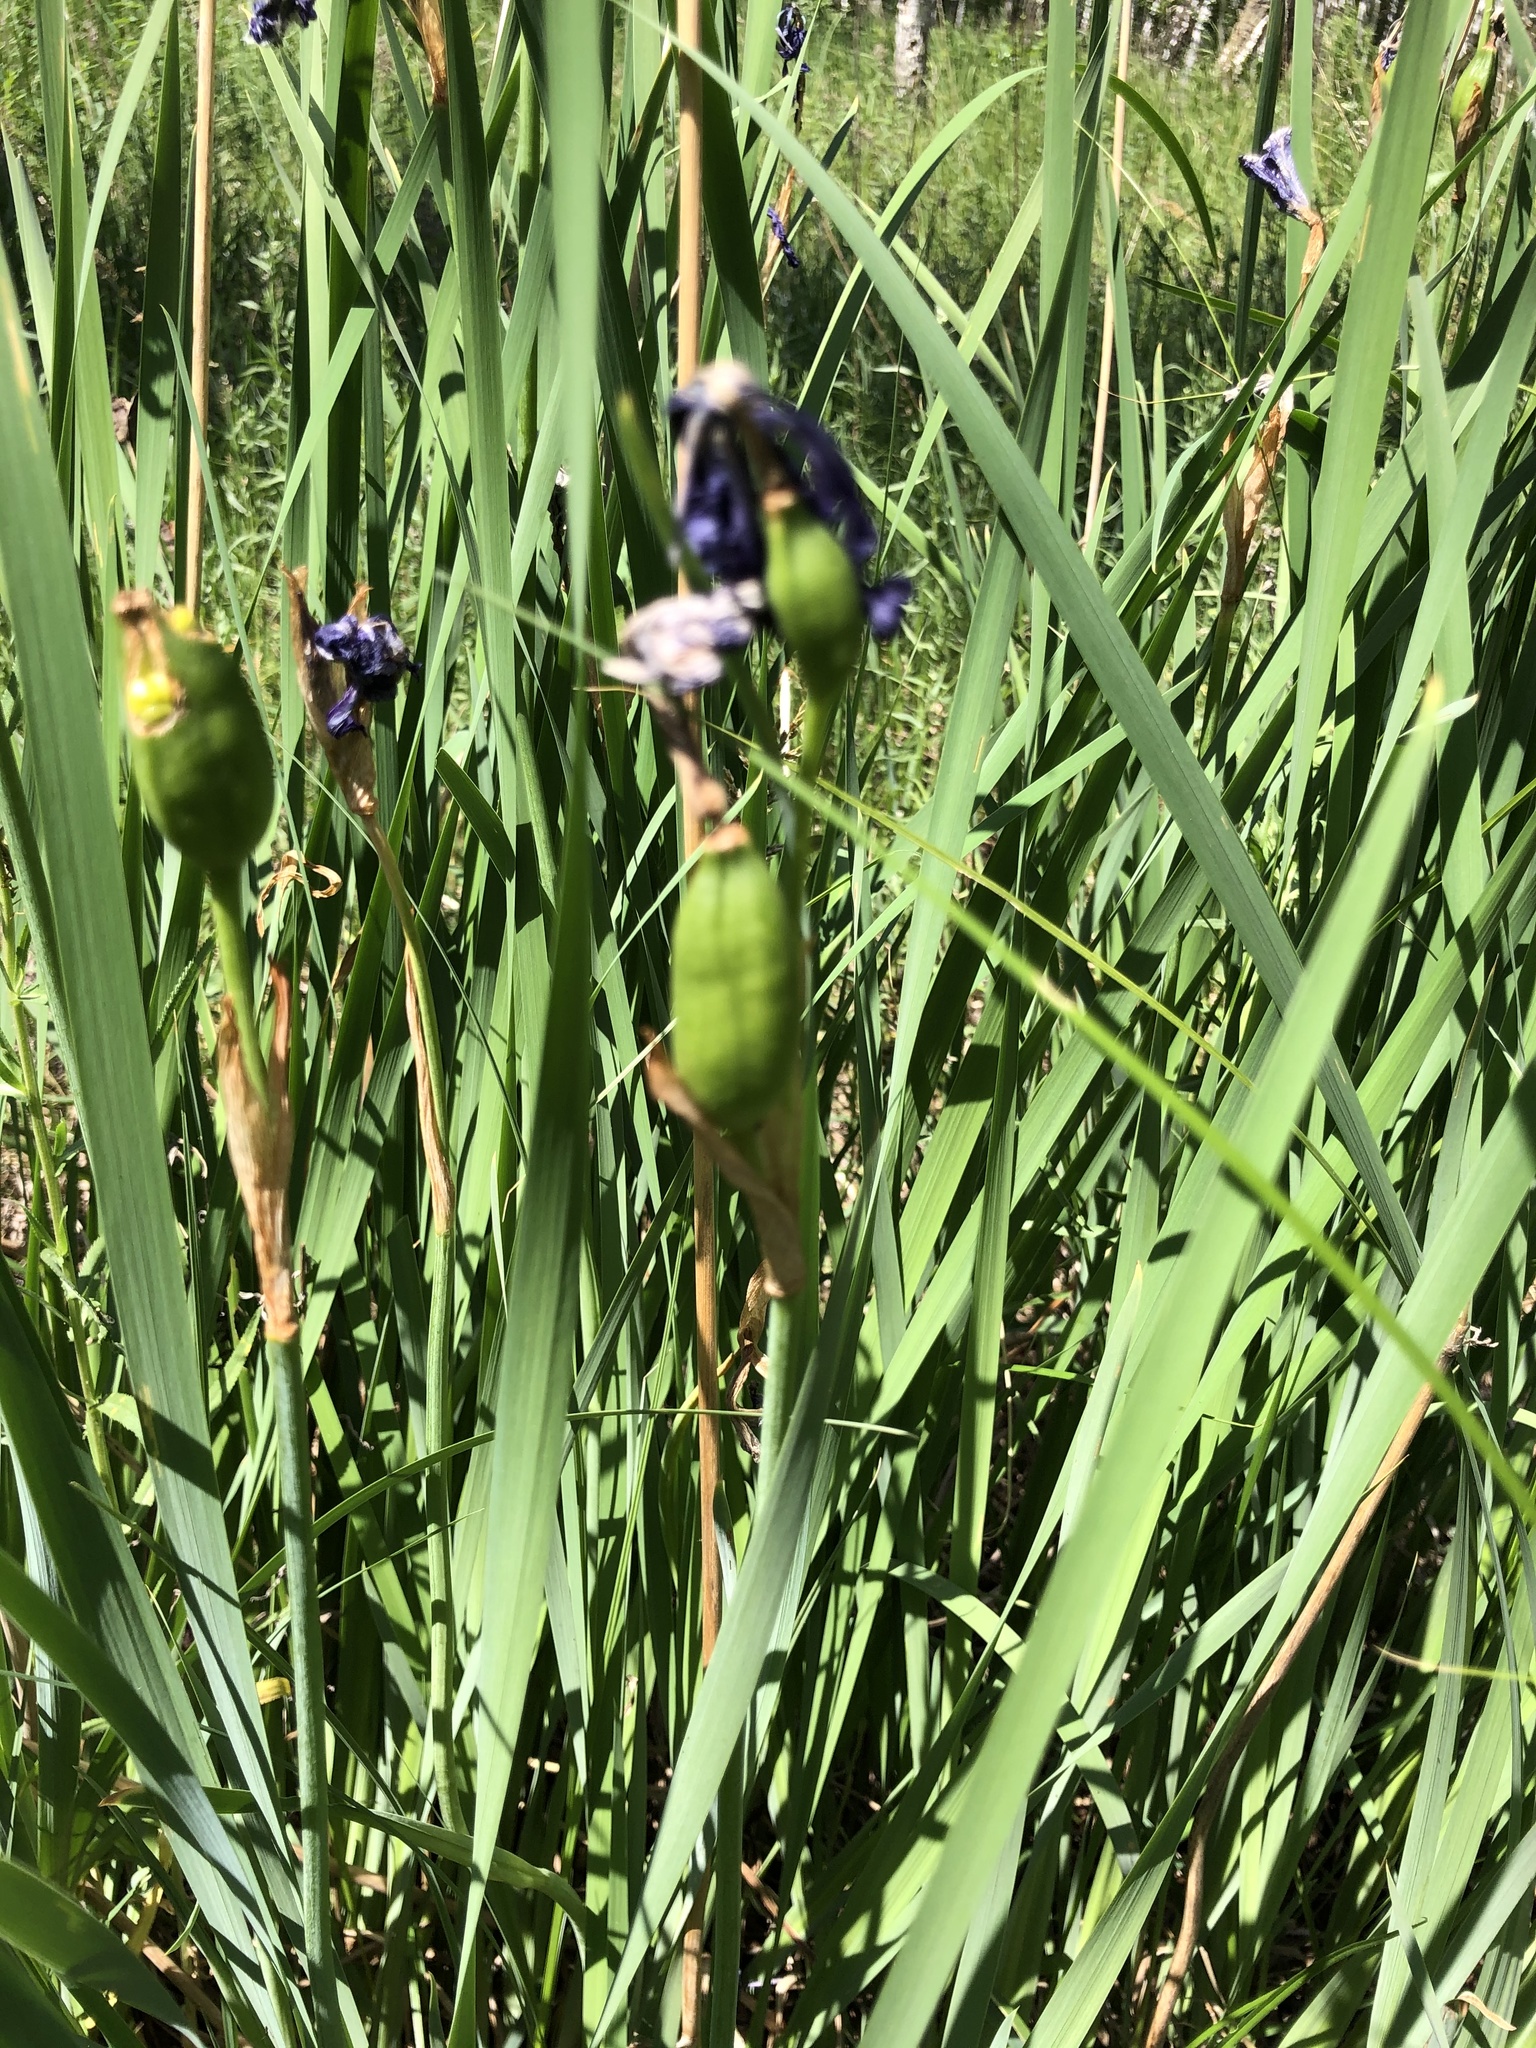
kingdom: Plantae
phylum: Tracheophyta
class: Liliopsida
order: Asparagales
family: Iridaceae
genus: Iris
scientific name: Iris sibirica
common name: Siberian iris
